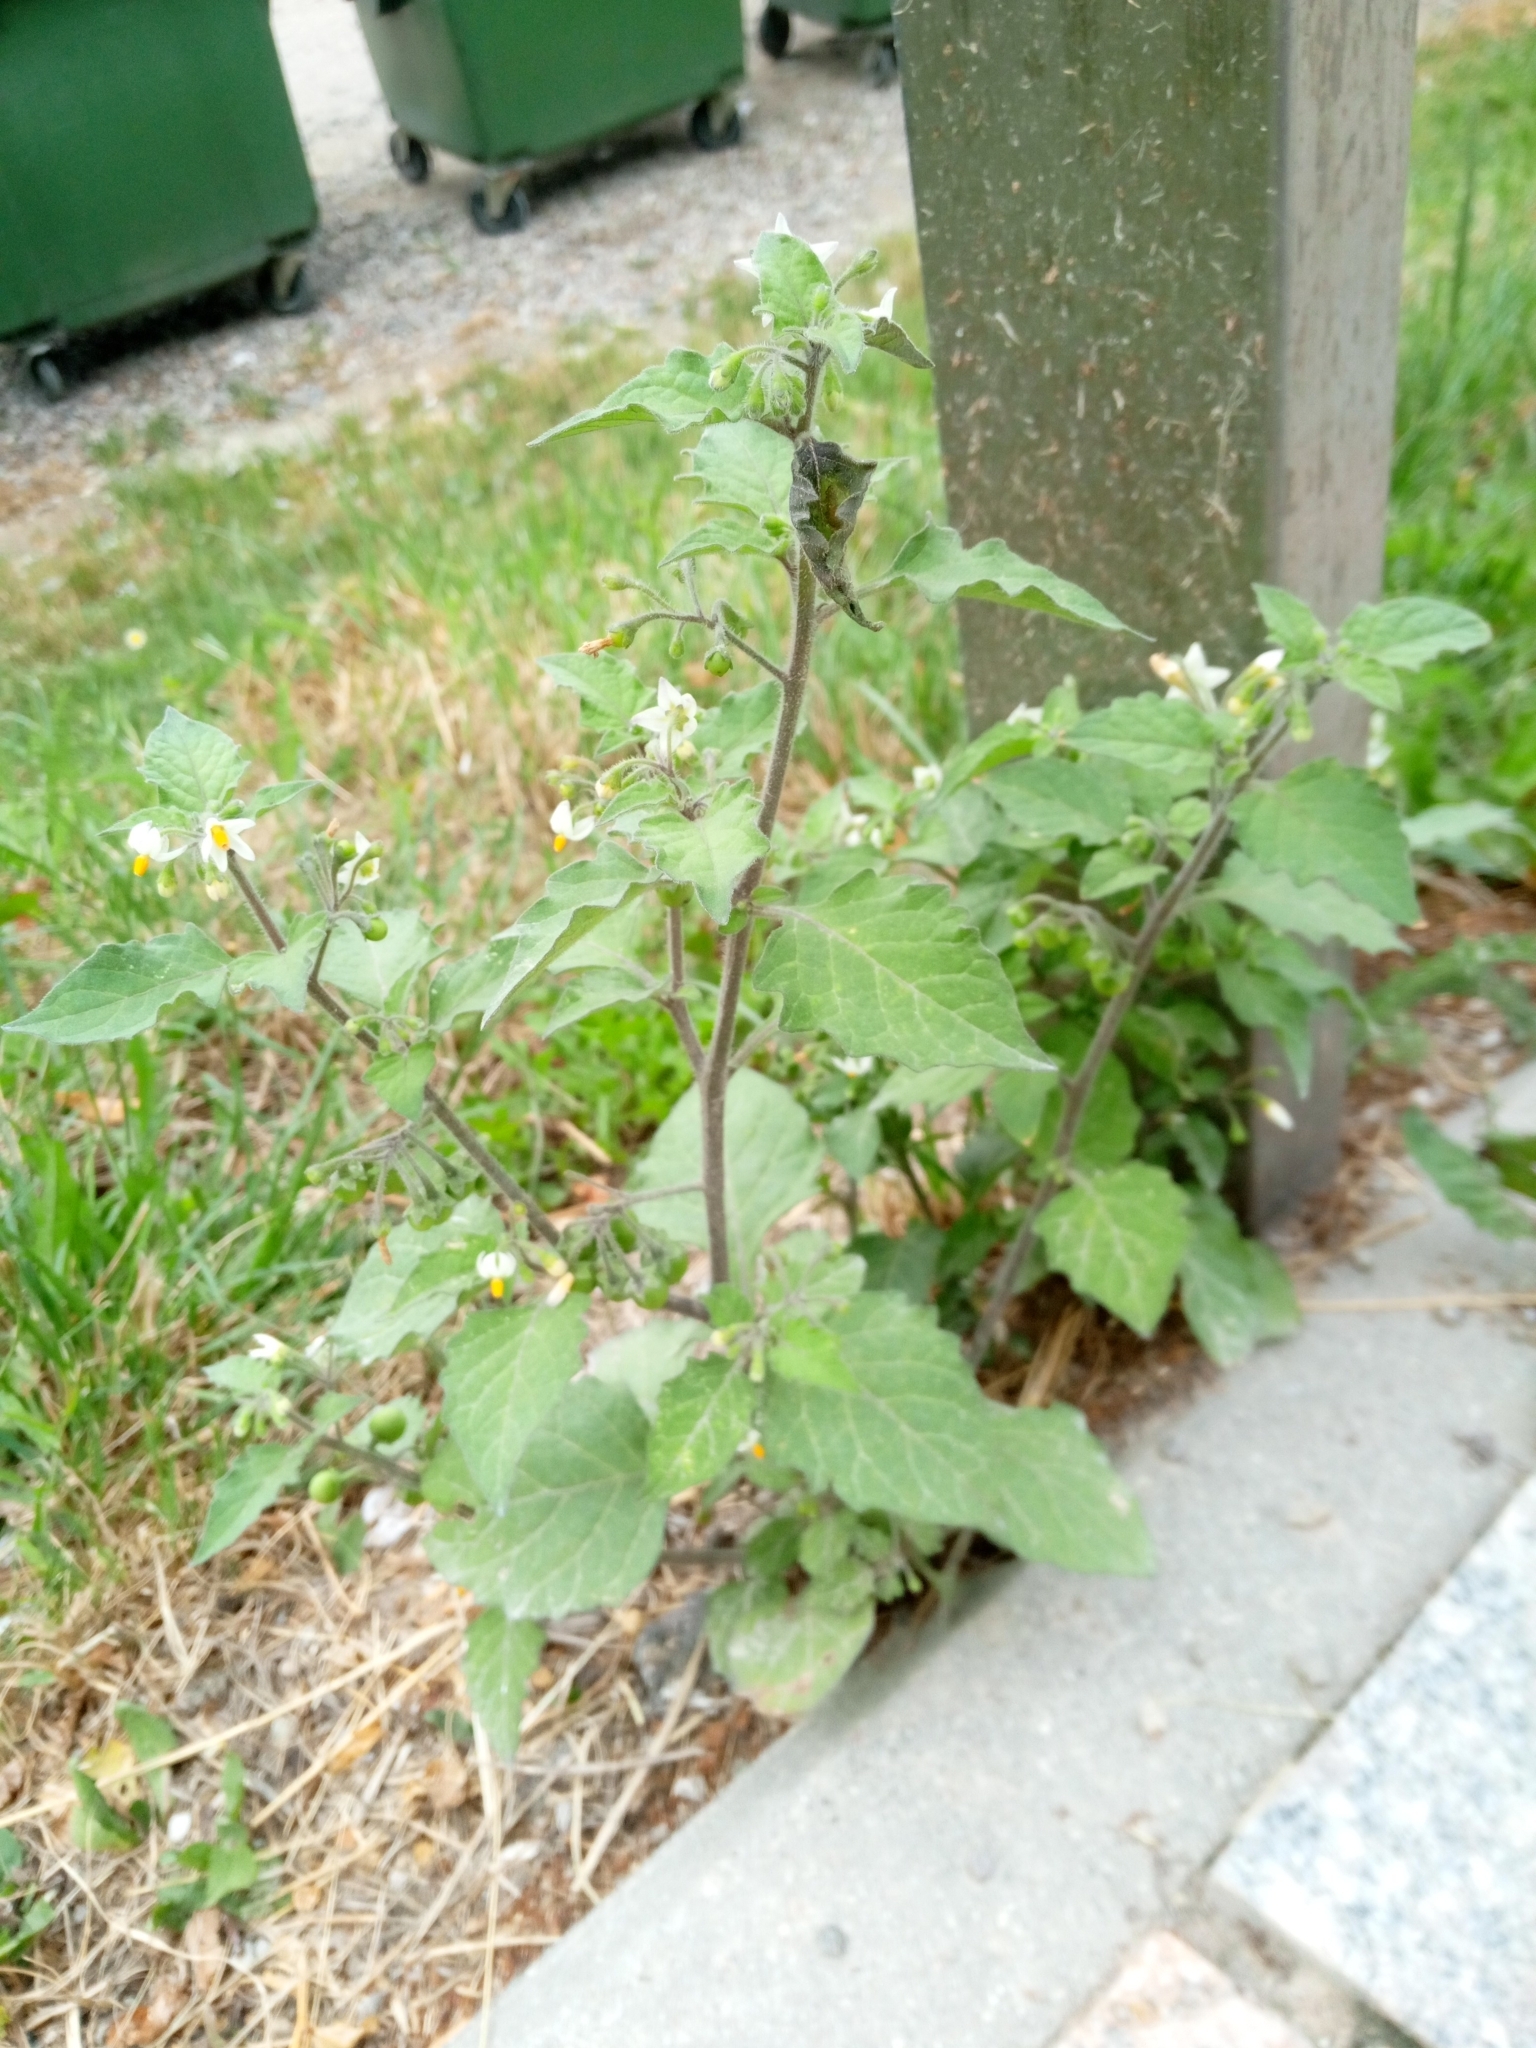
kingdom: Plantae
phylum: Tracheophyta
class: Magnoliopsida
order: Solanales
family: Solanaceae
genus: Solanum
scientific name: Solanum nigrum
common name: Black nightshade
